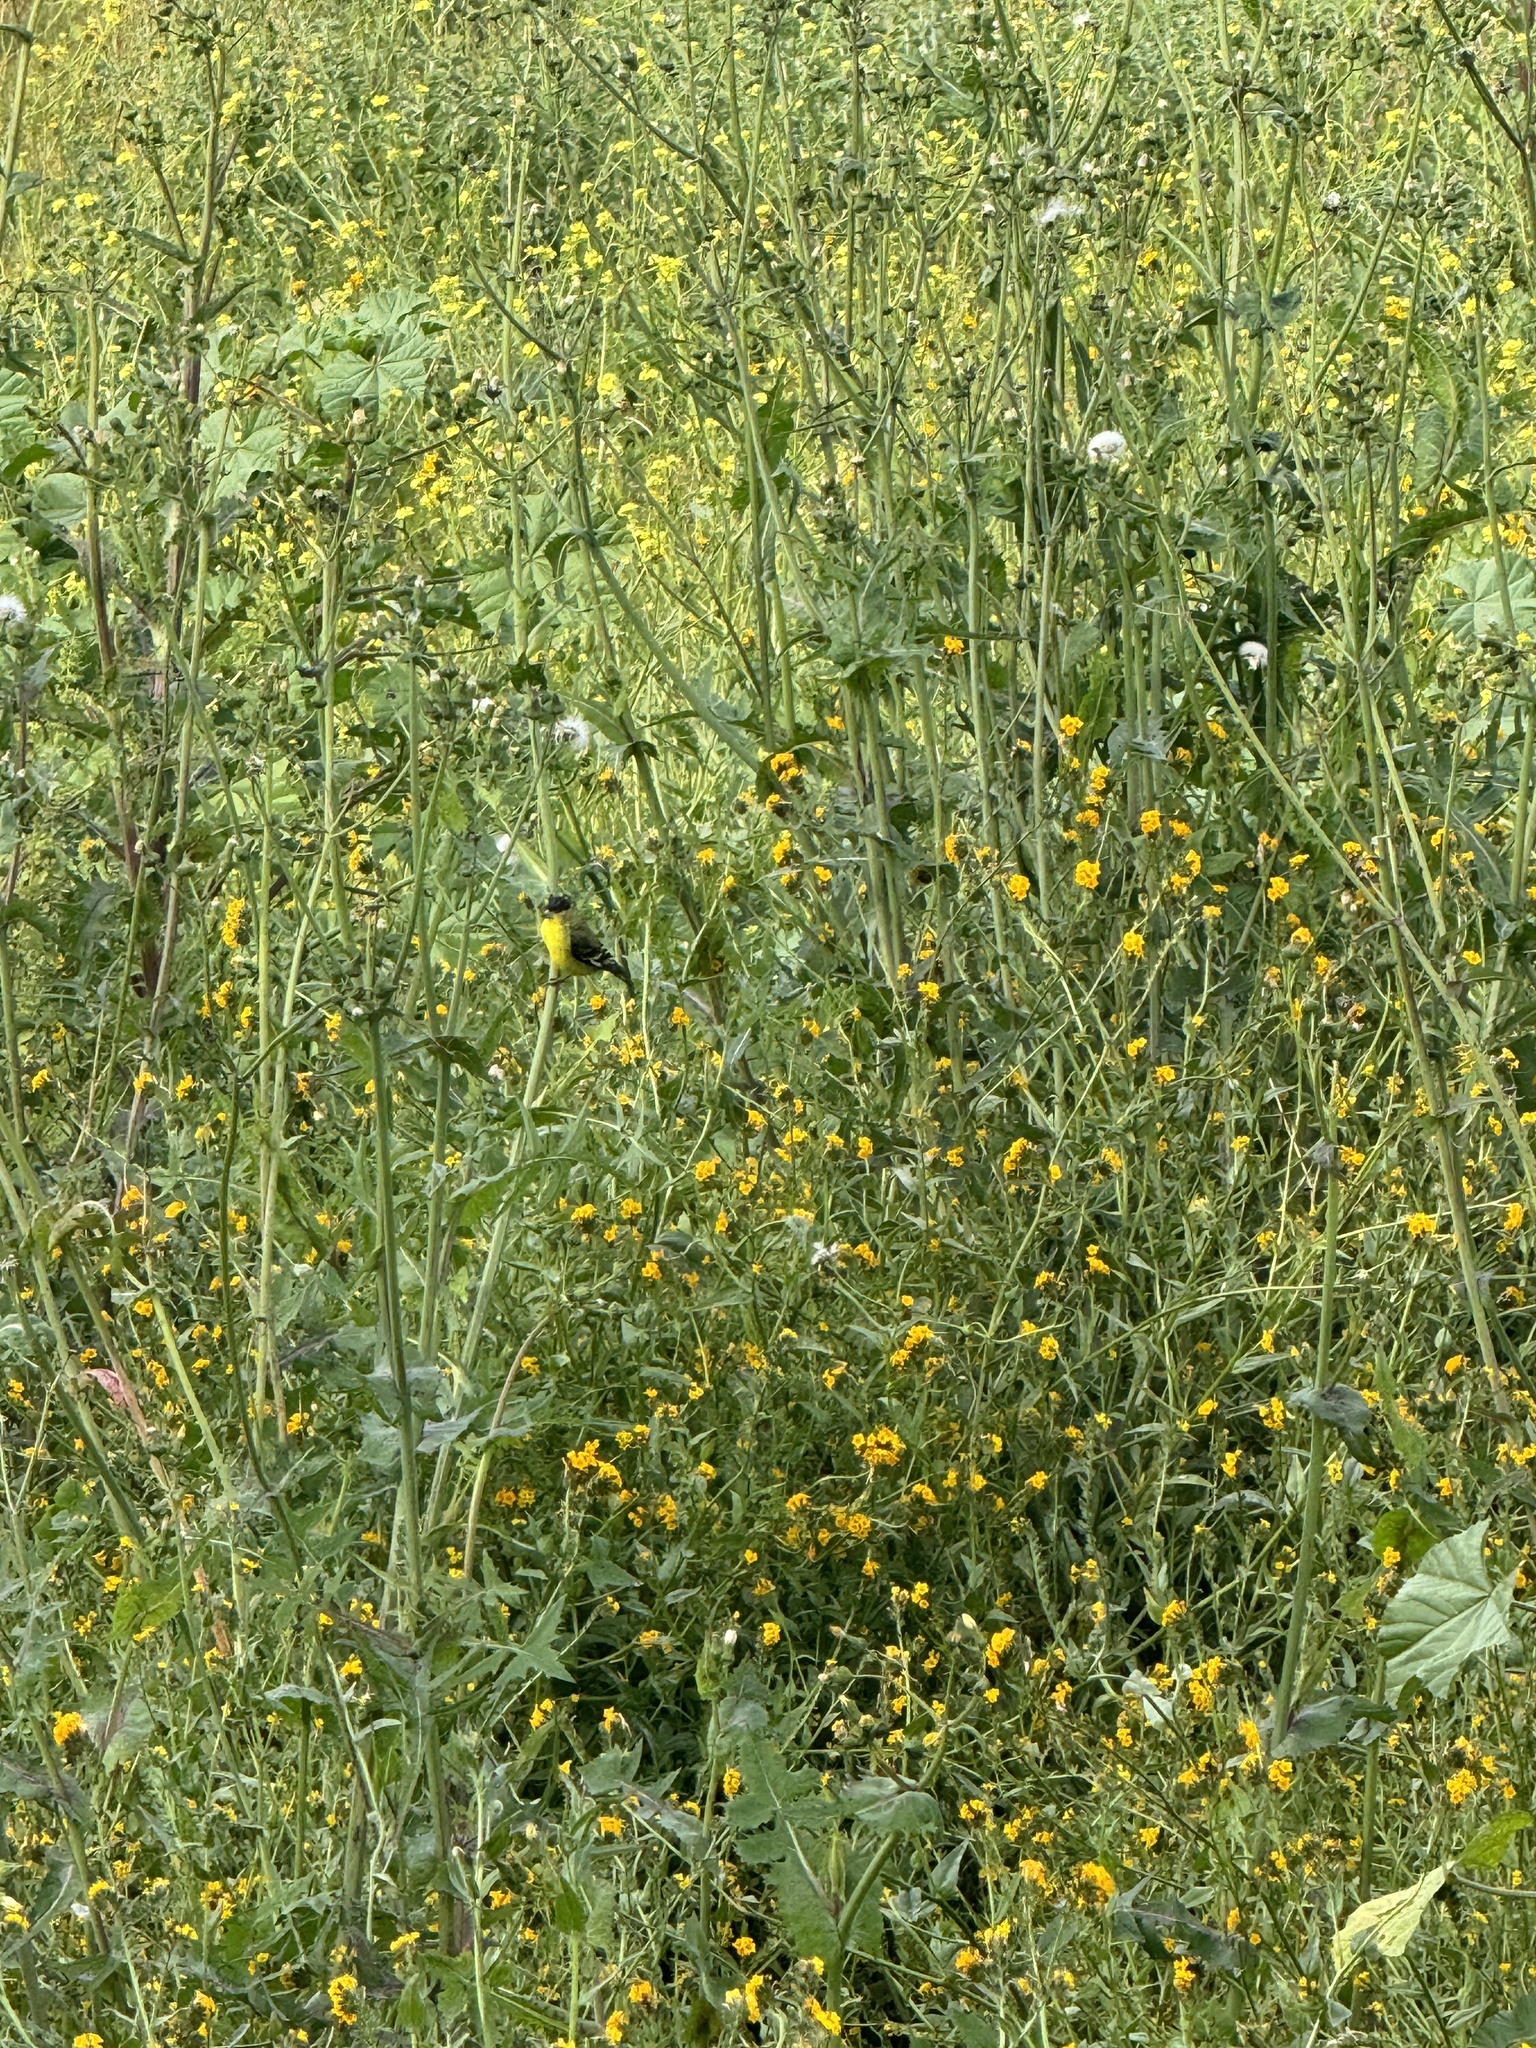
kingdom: Animalia
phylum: Chordata
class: Aves
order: Passeriformes
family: Fringillidae
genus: Spinus
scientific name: Spinus psaltria
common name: Lesser goldfinch
